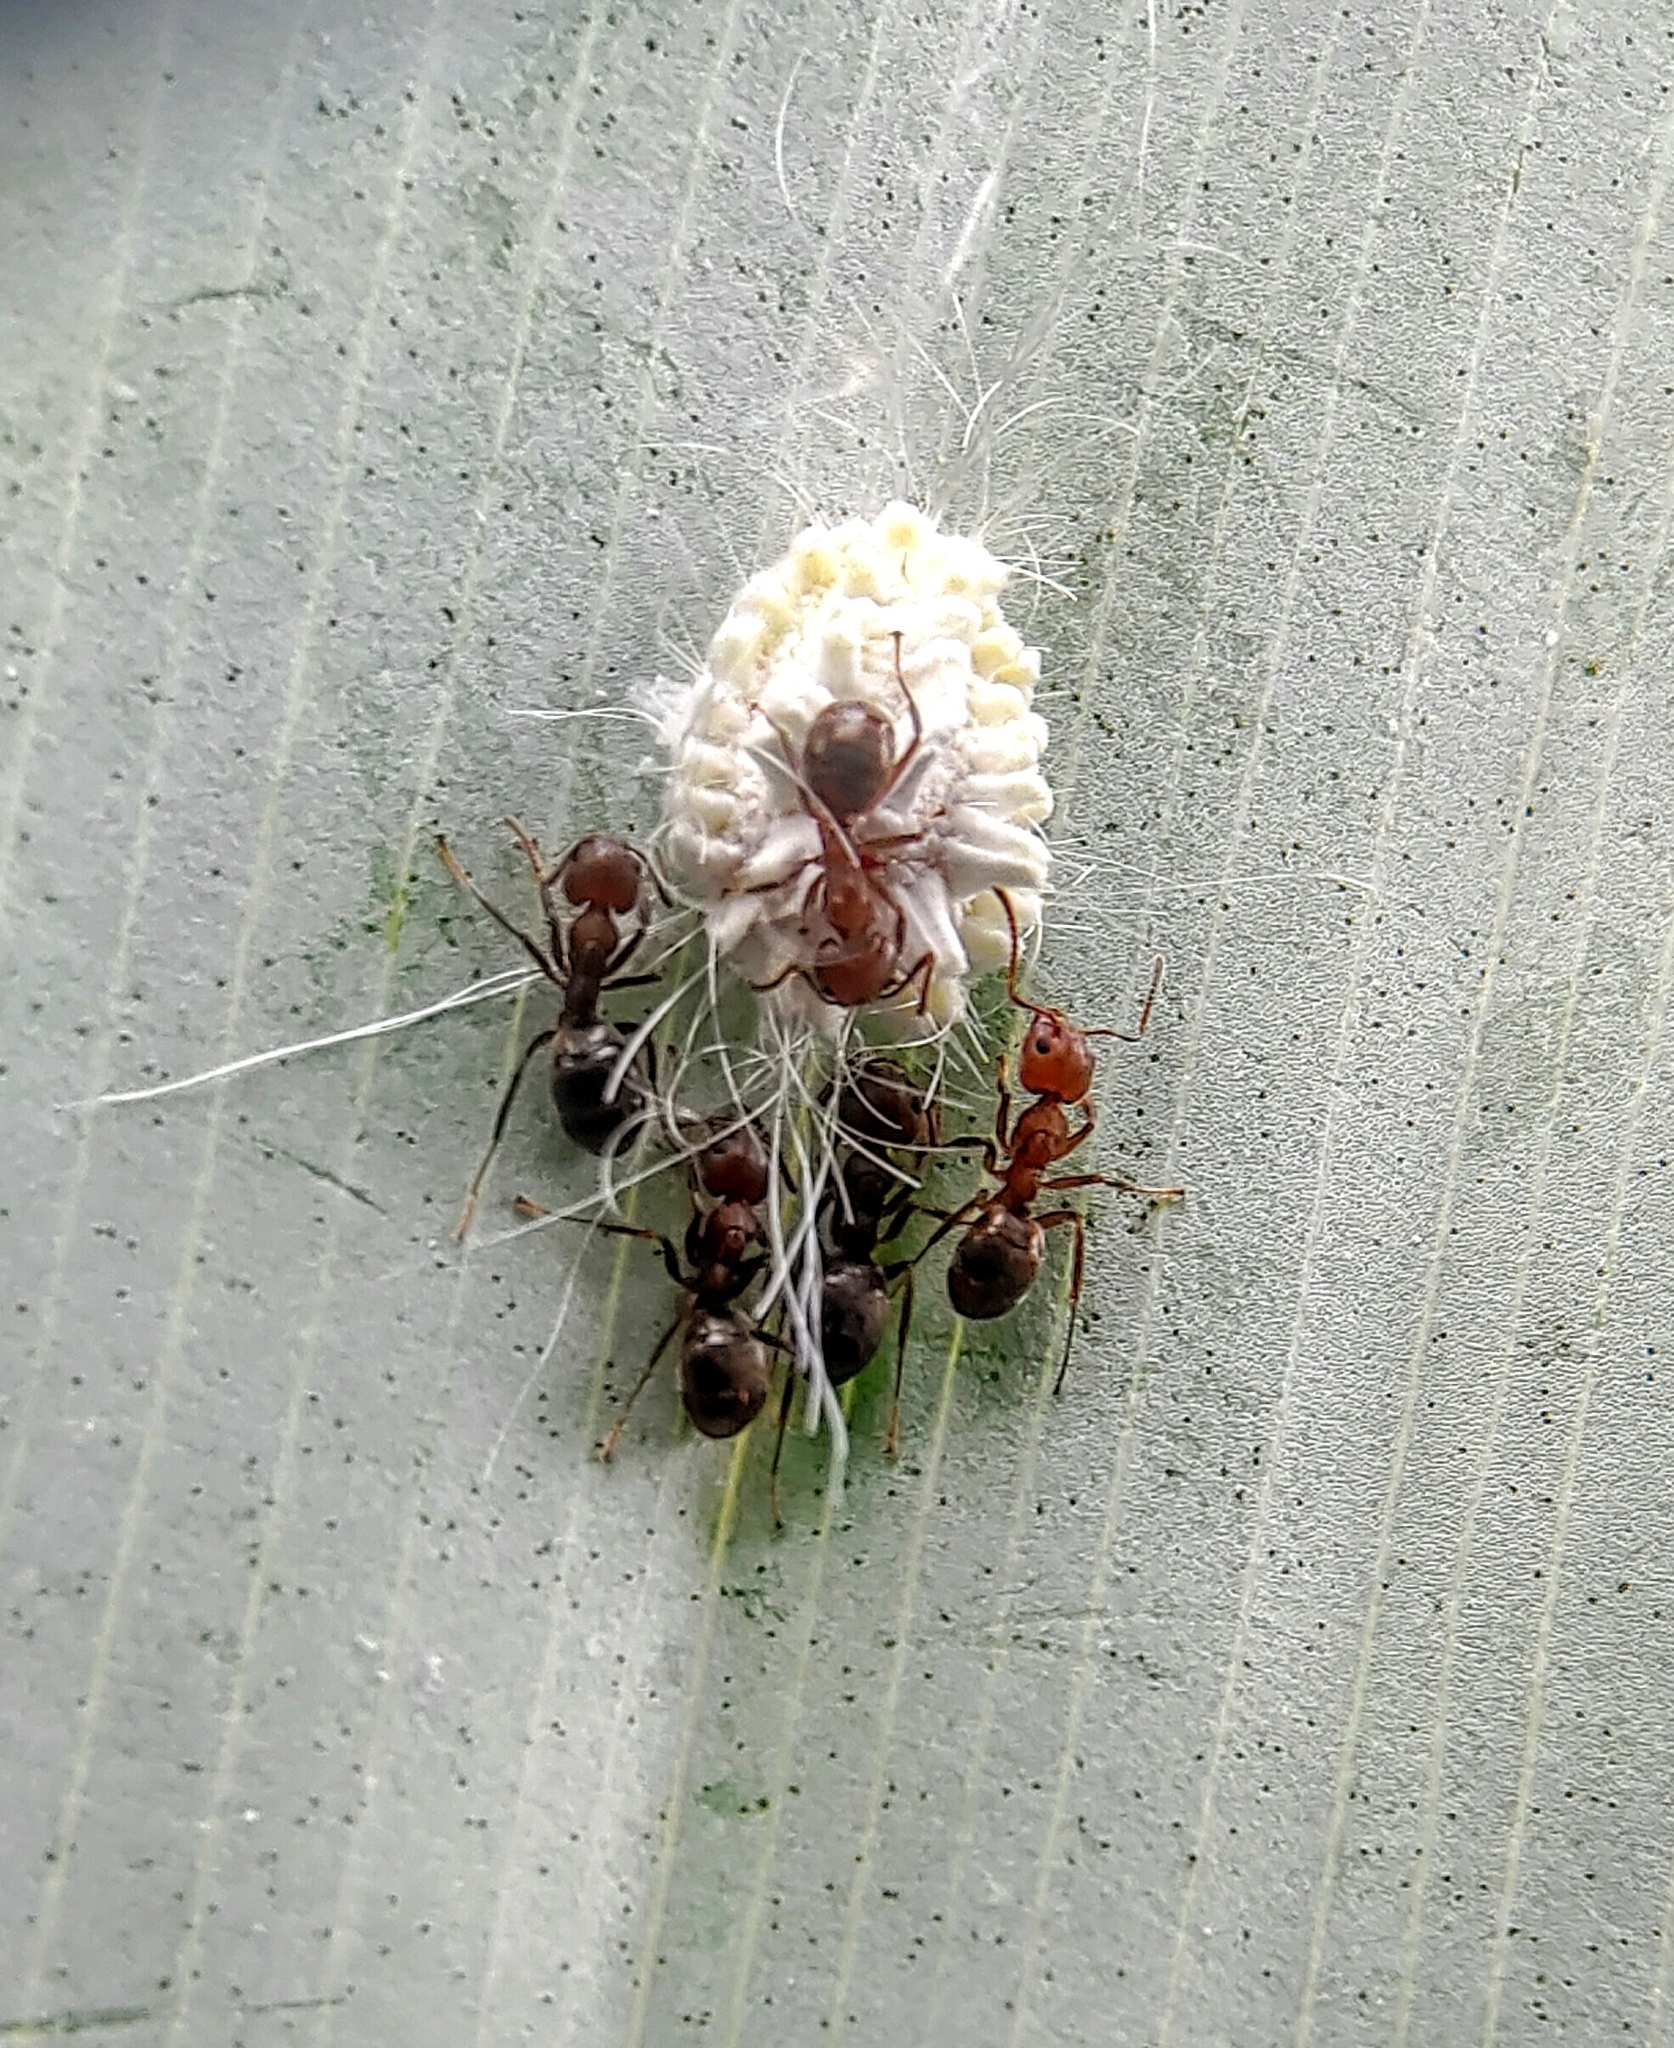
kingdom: Animalia
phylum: Arthropoda
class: Insecta
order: Hemiptera
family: Margarodidae
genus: Icerya
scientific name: Icerya seychellarum
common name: Iceplant scale
